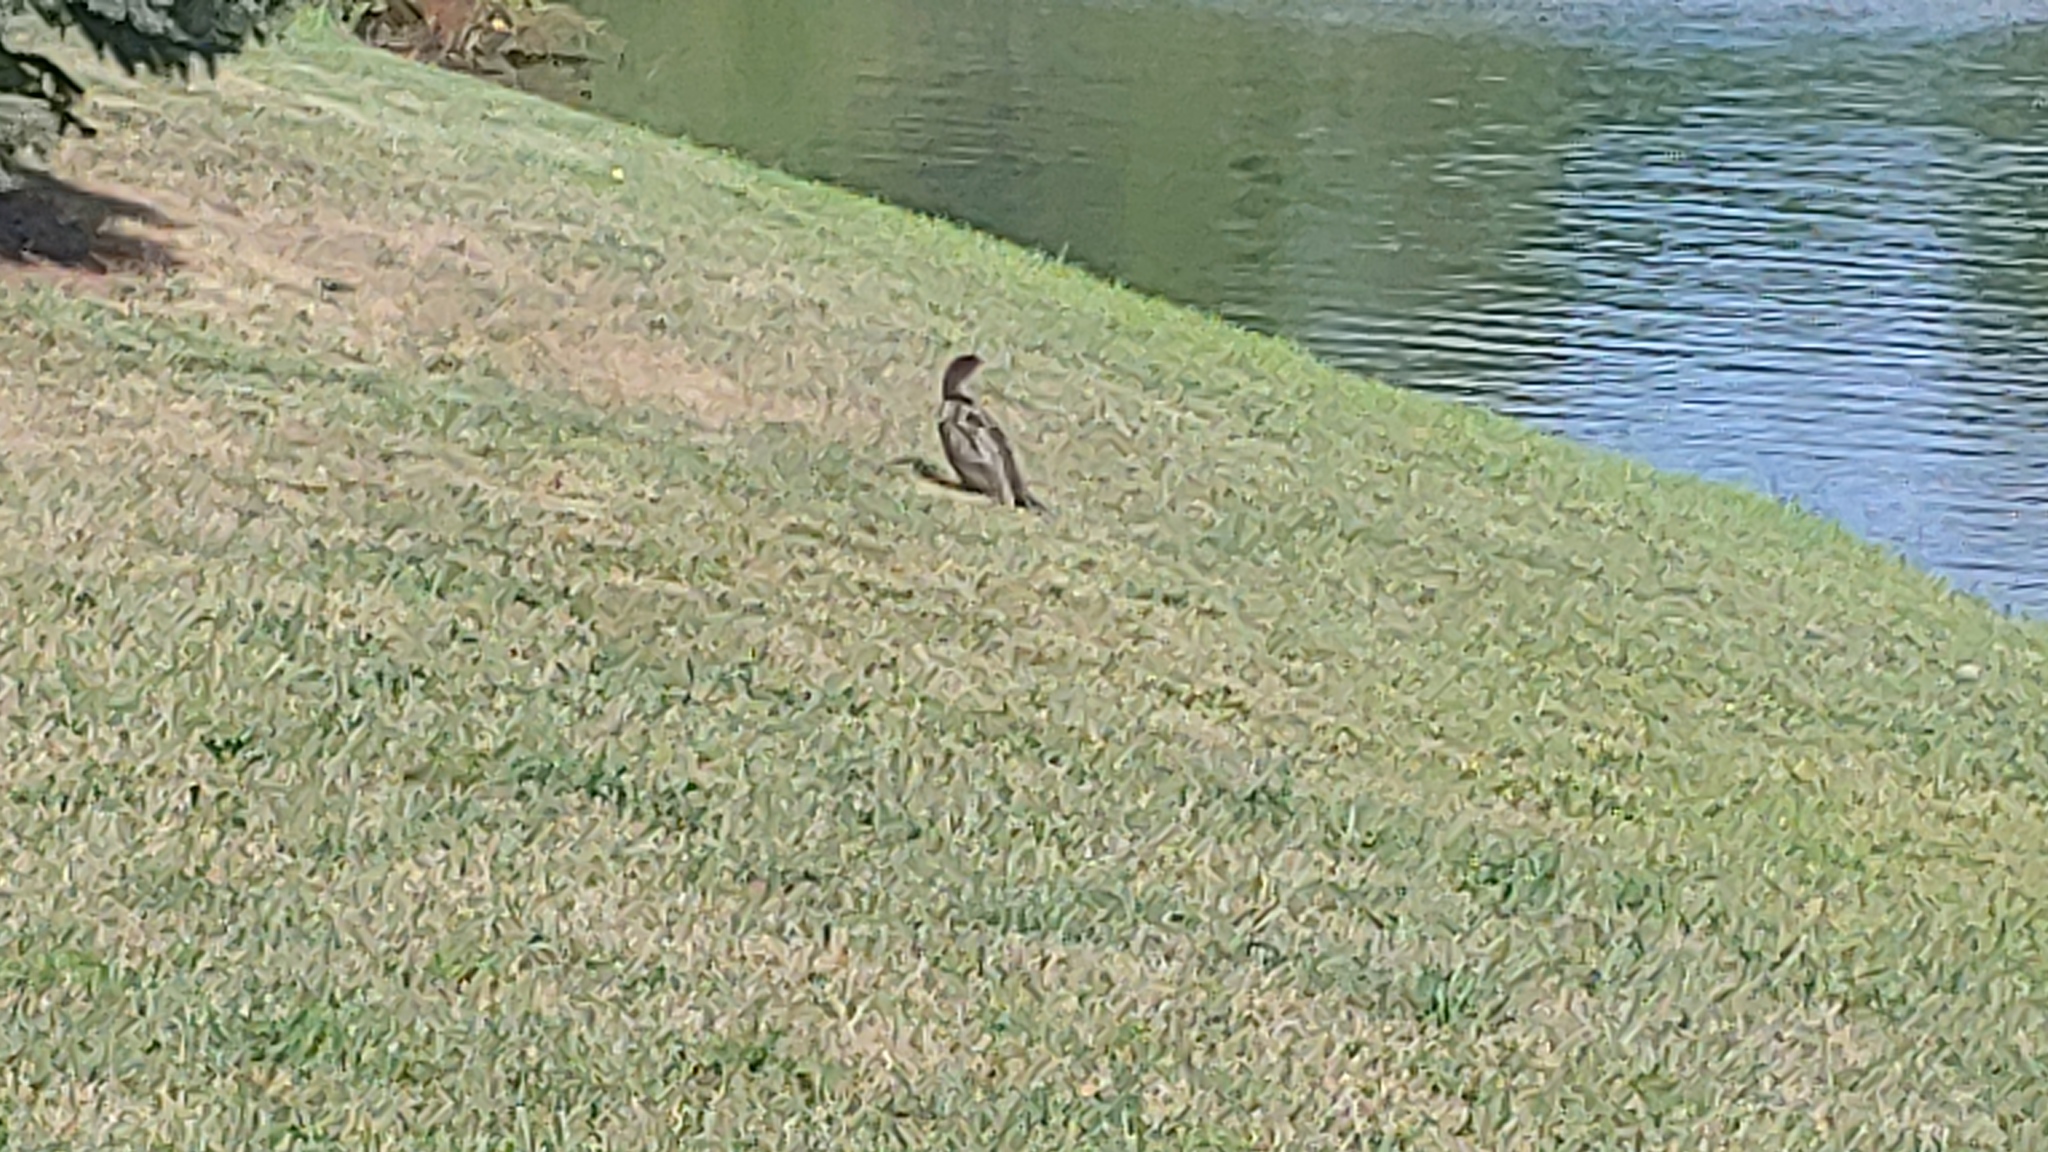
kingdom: Animalia
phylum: Chordata
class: Aves
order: Suliformes
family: Phalacrocoracidae
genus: Phalacrocorax
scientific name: Phalacrocorax auritus
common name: Double-crested cormorant
